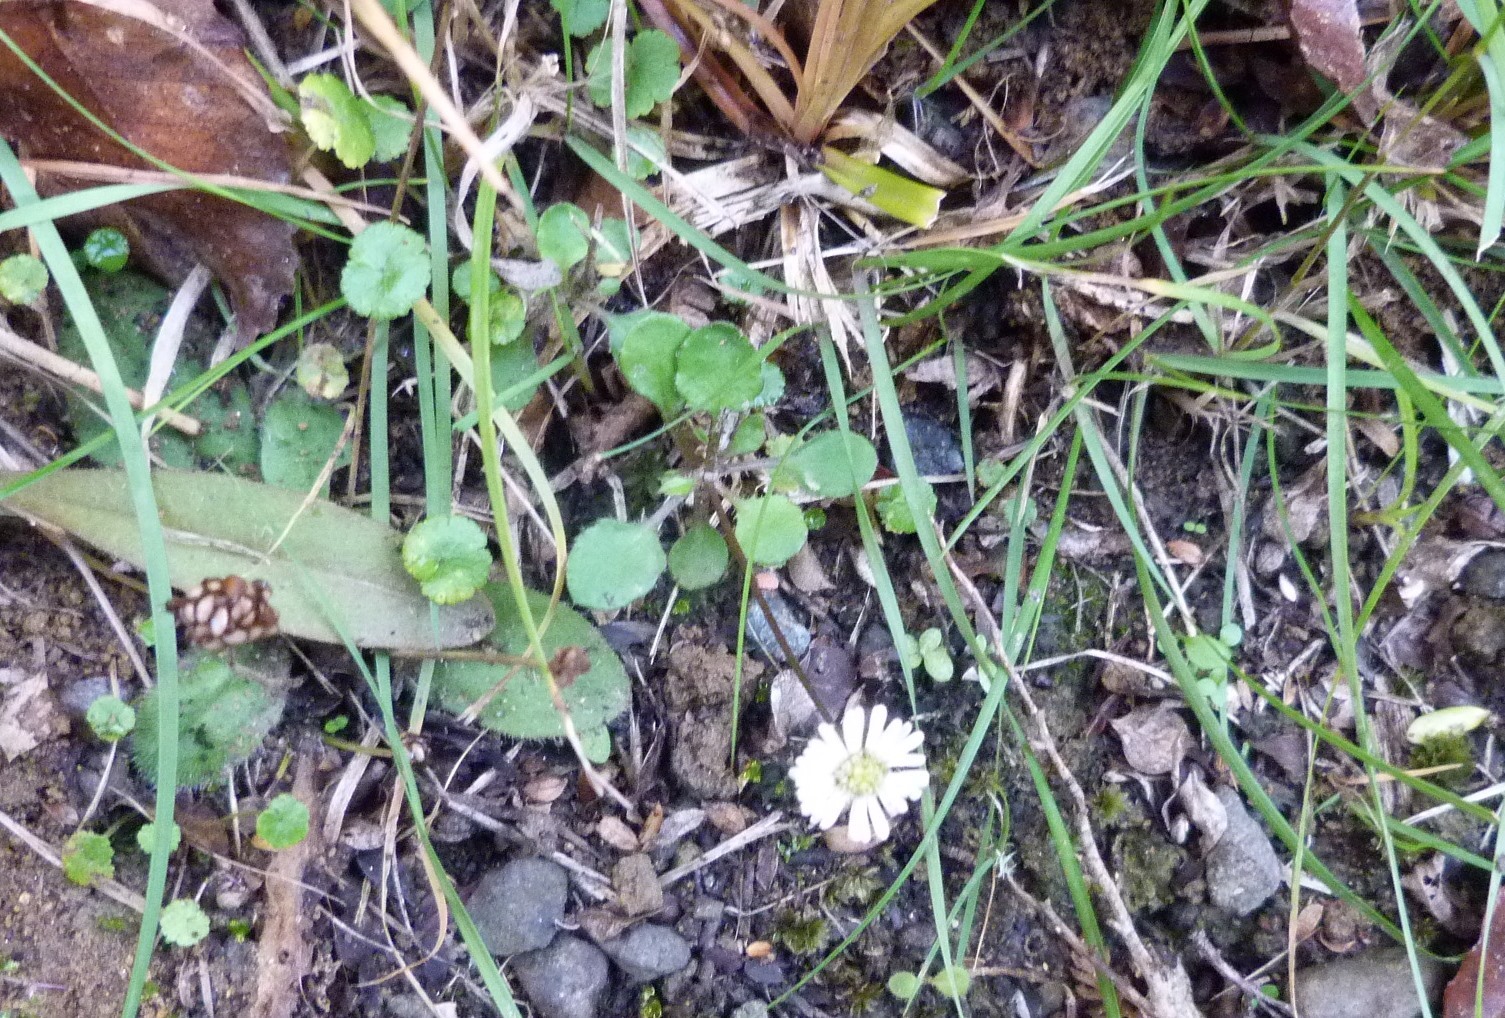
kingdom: Plantae
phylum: Tracheophyta
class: Magnoliopsida
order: Asterales
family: Asteraceae
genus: Lagenophora
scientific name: Lagenophora pumila
